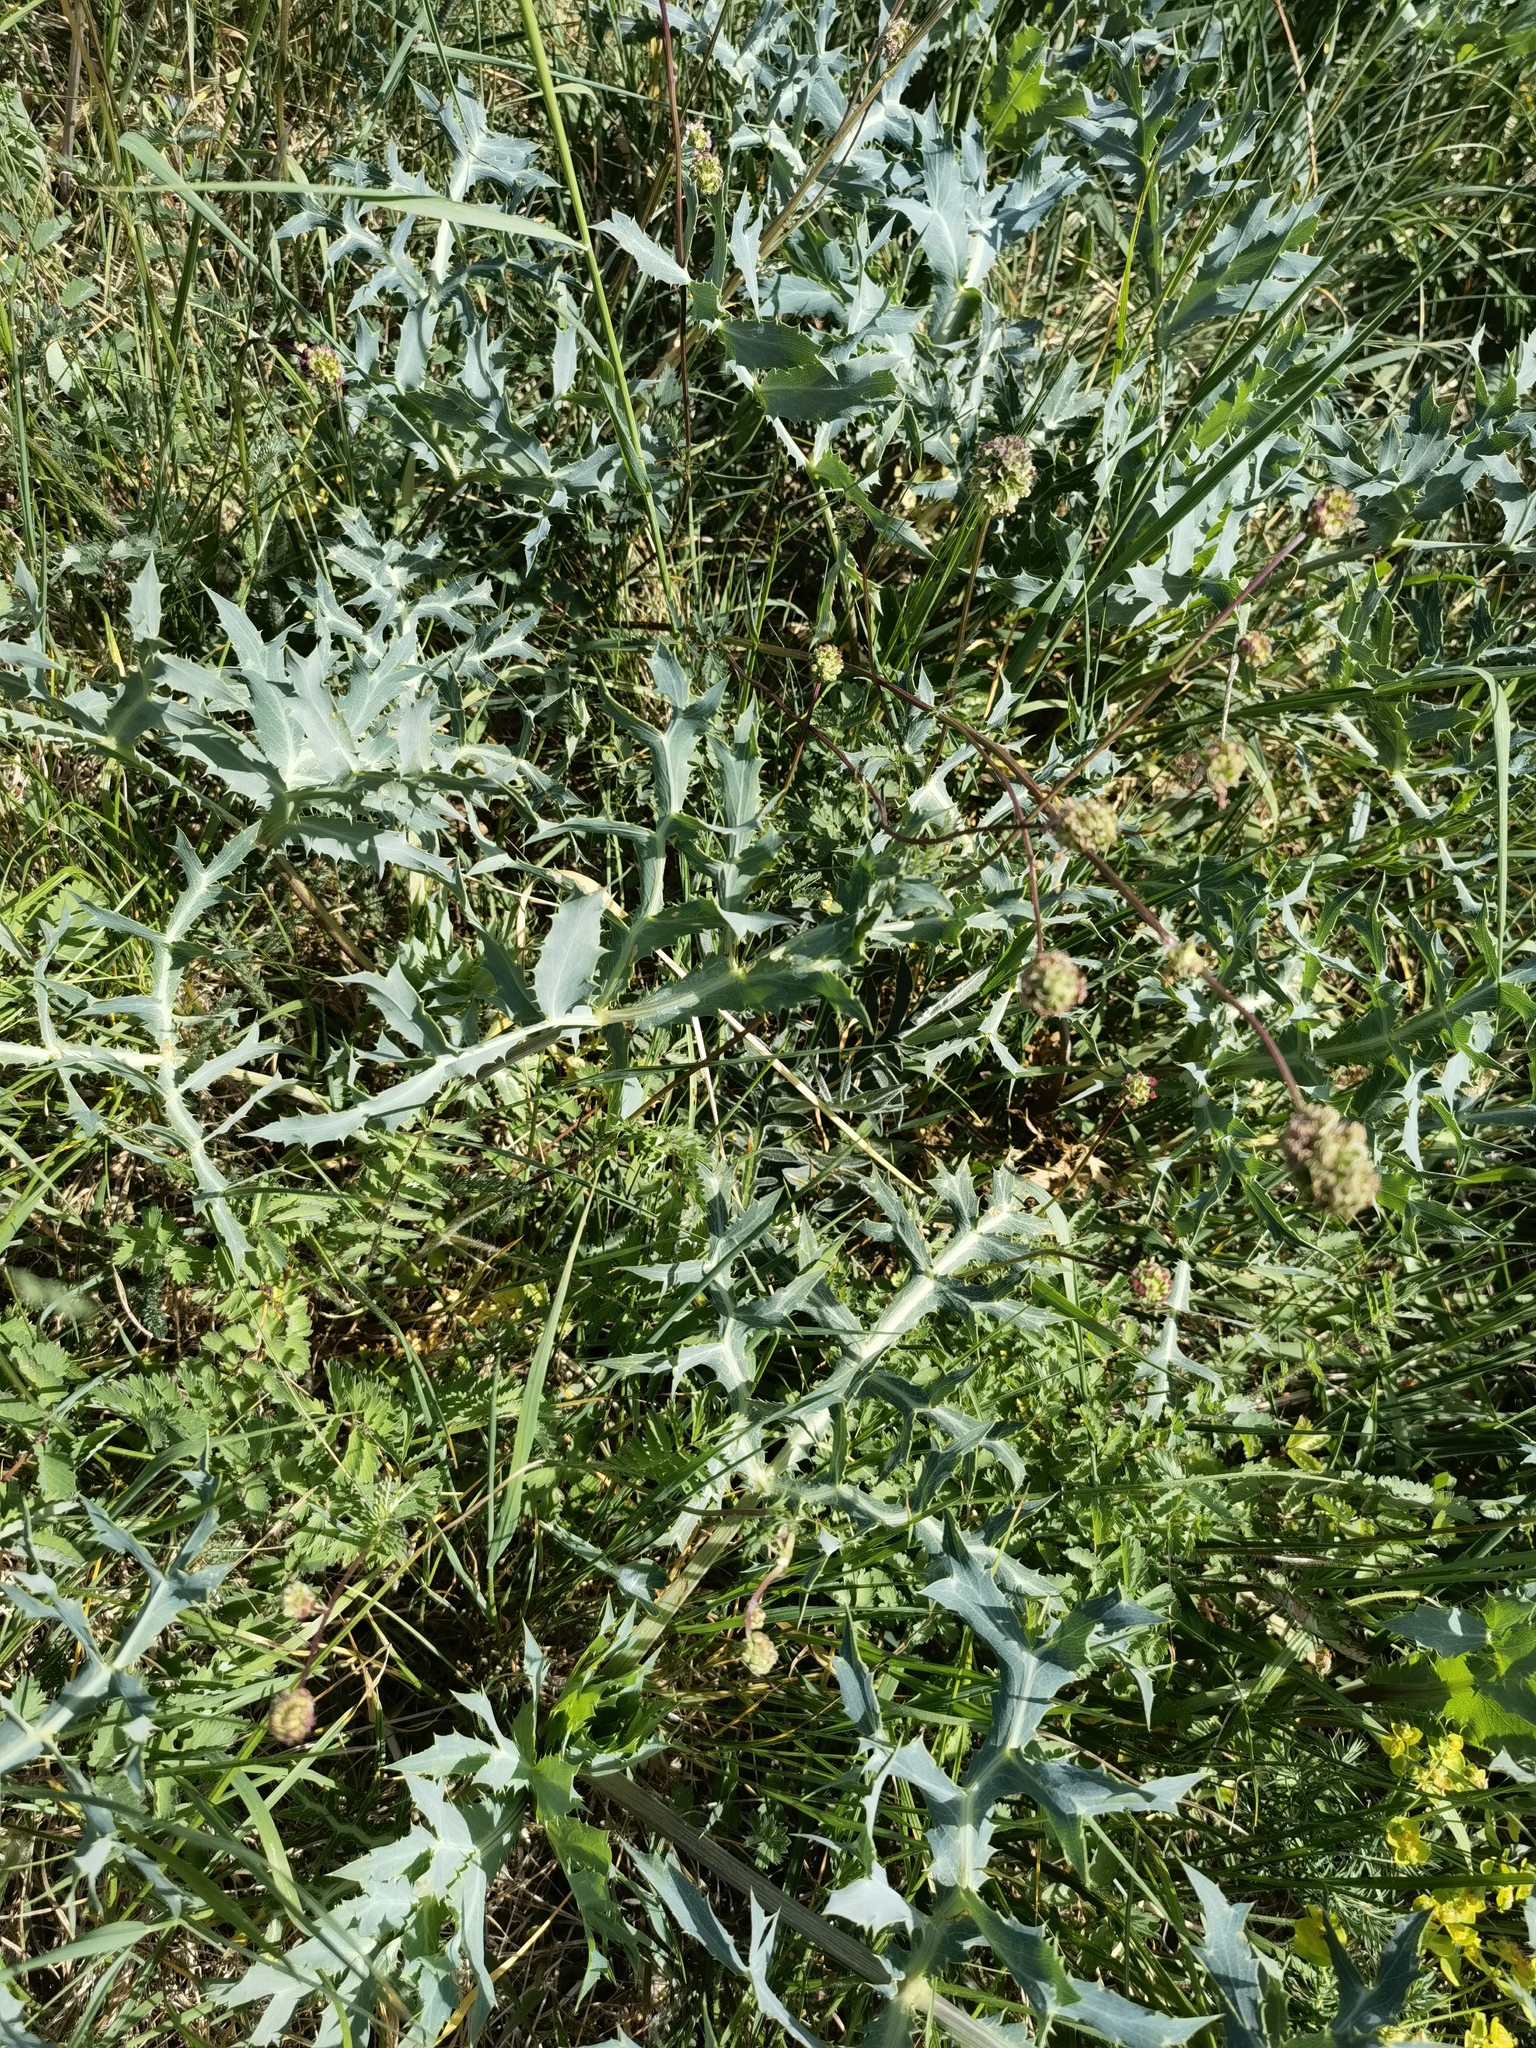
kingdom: Plantae
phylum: Tracheophyta
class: Magnoliopsida
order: Apiales
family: Apiaceae
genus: Eryngium
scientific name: Eryngium campestre
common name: Field eryngo
